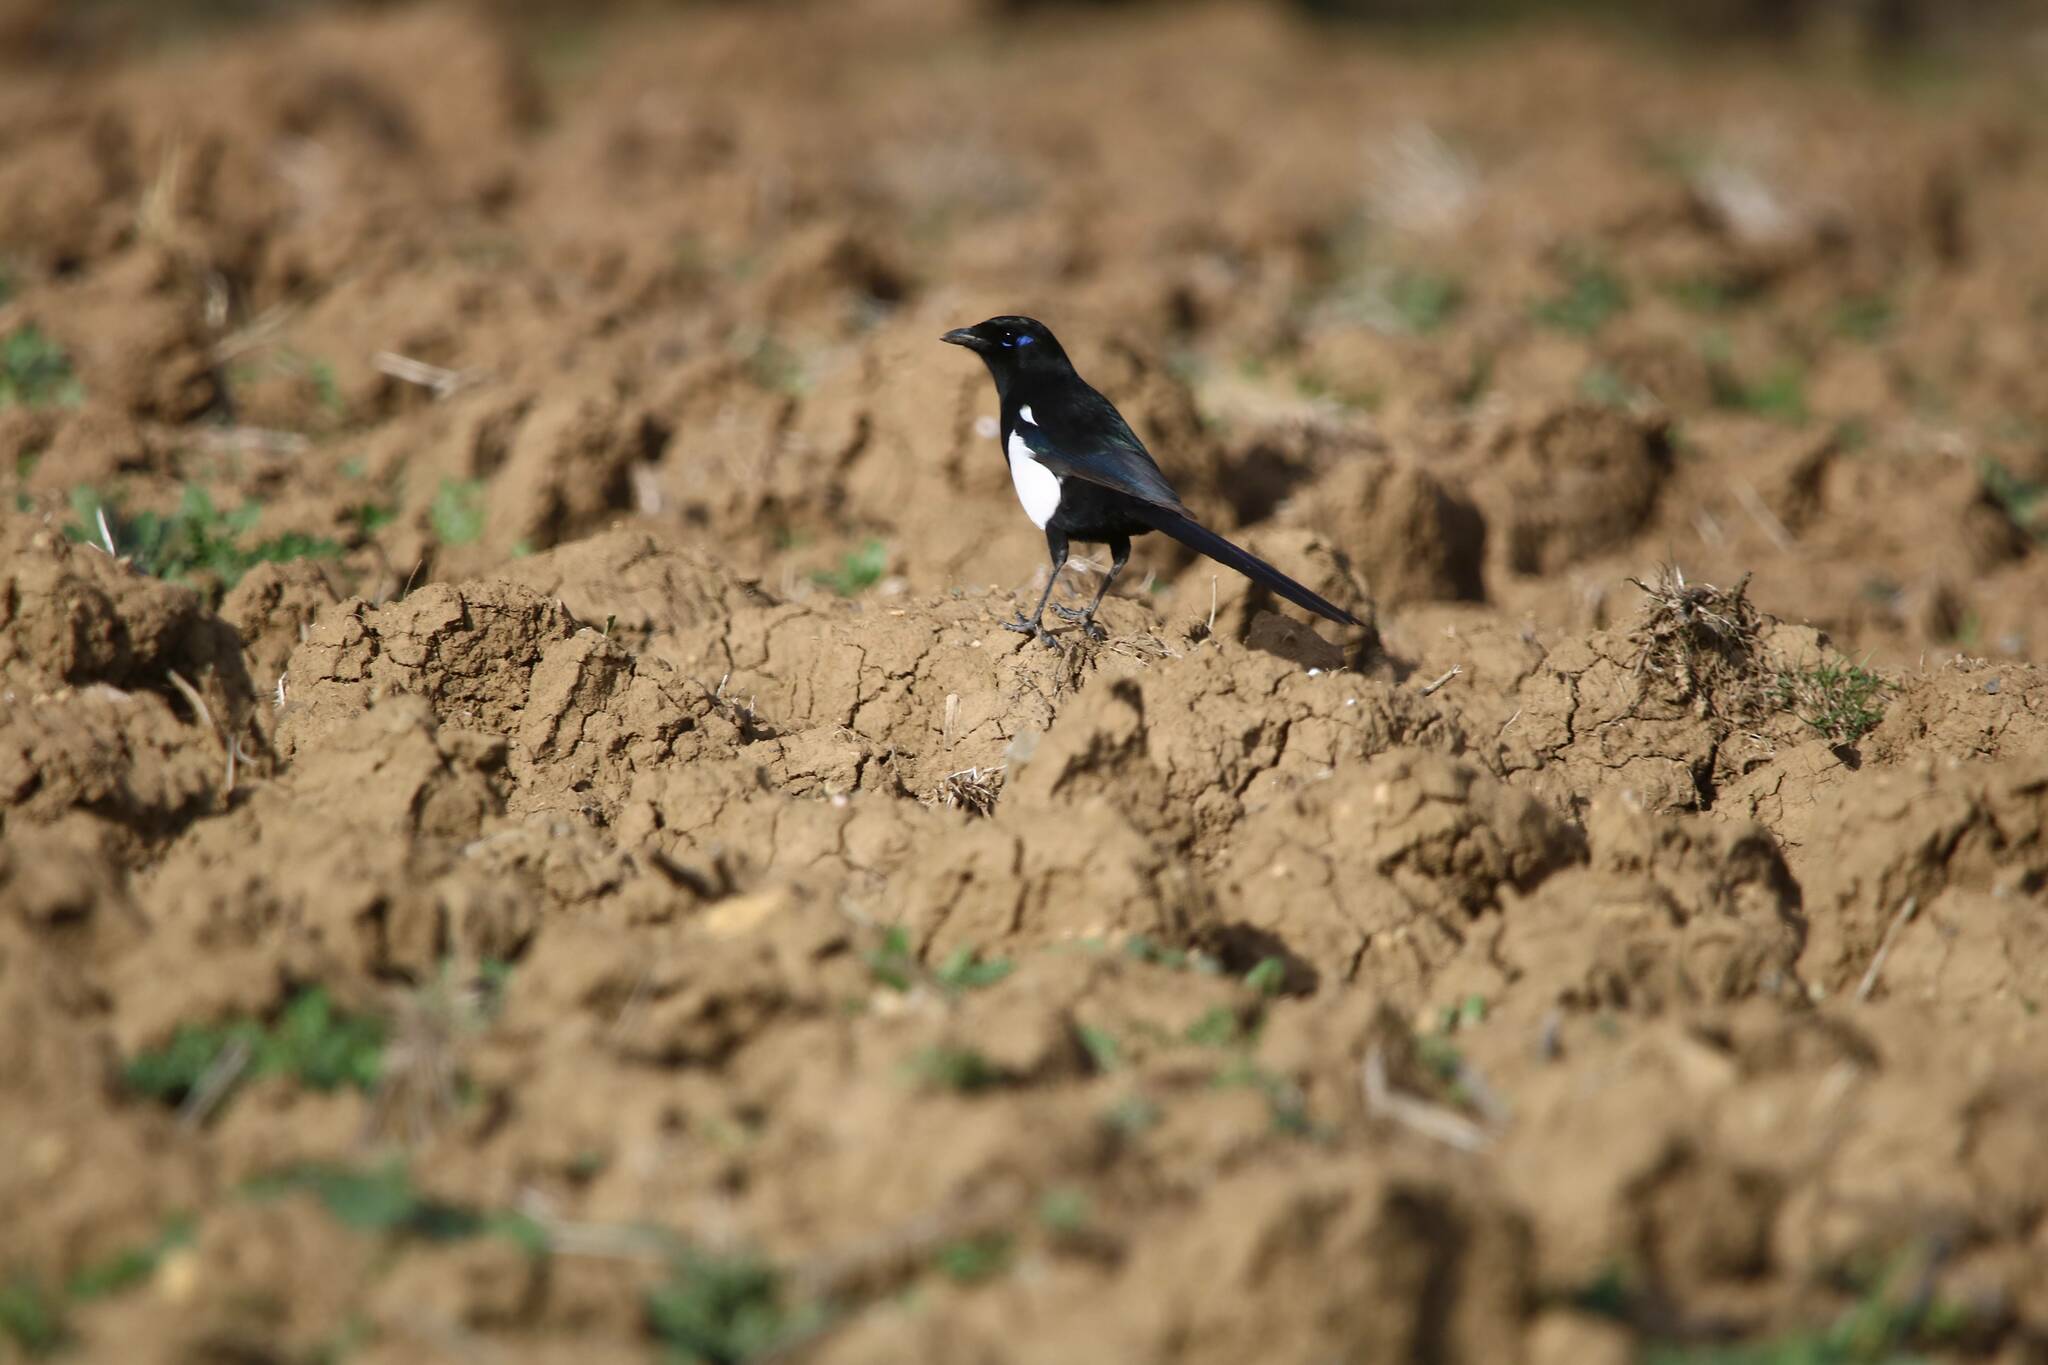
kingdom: Animalia
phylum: Chordata
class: Aves
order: Passeriformes
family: Corvidae
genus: Pica
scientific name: Pica mauritanica
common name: Maghreb magpie
